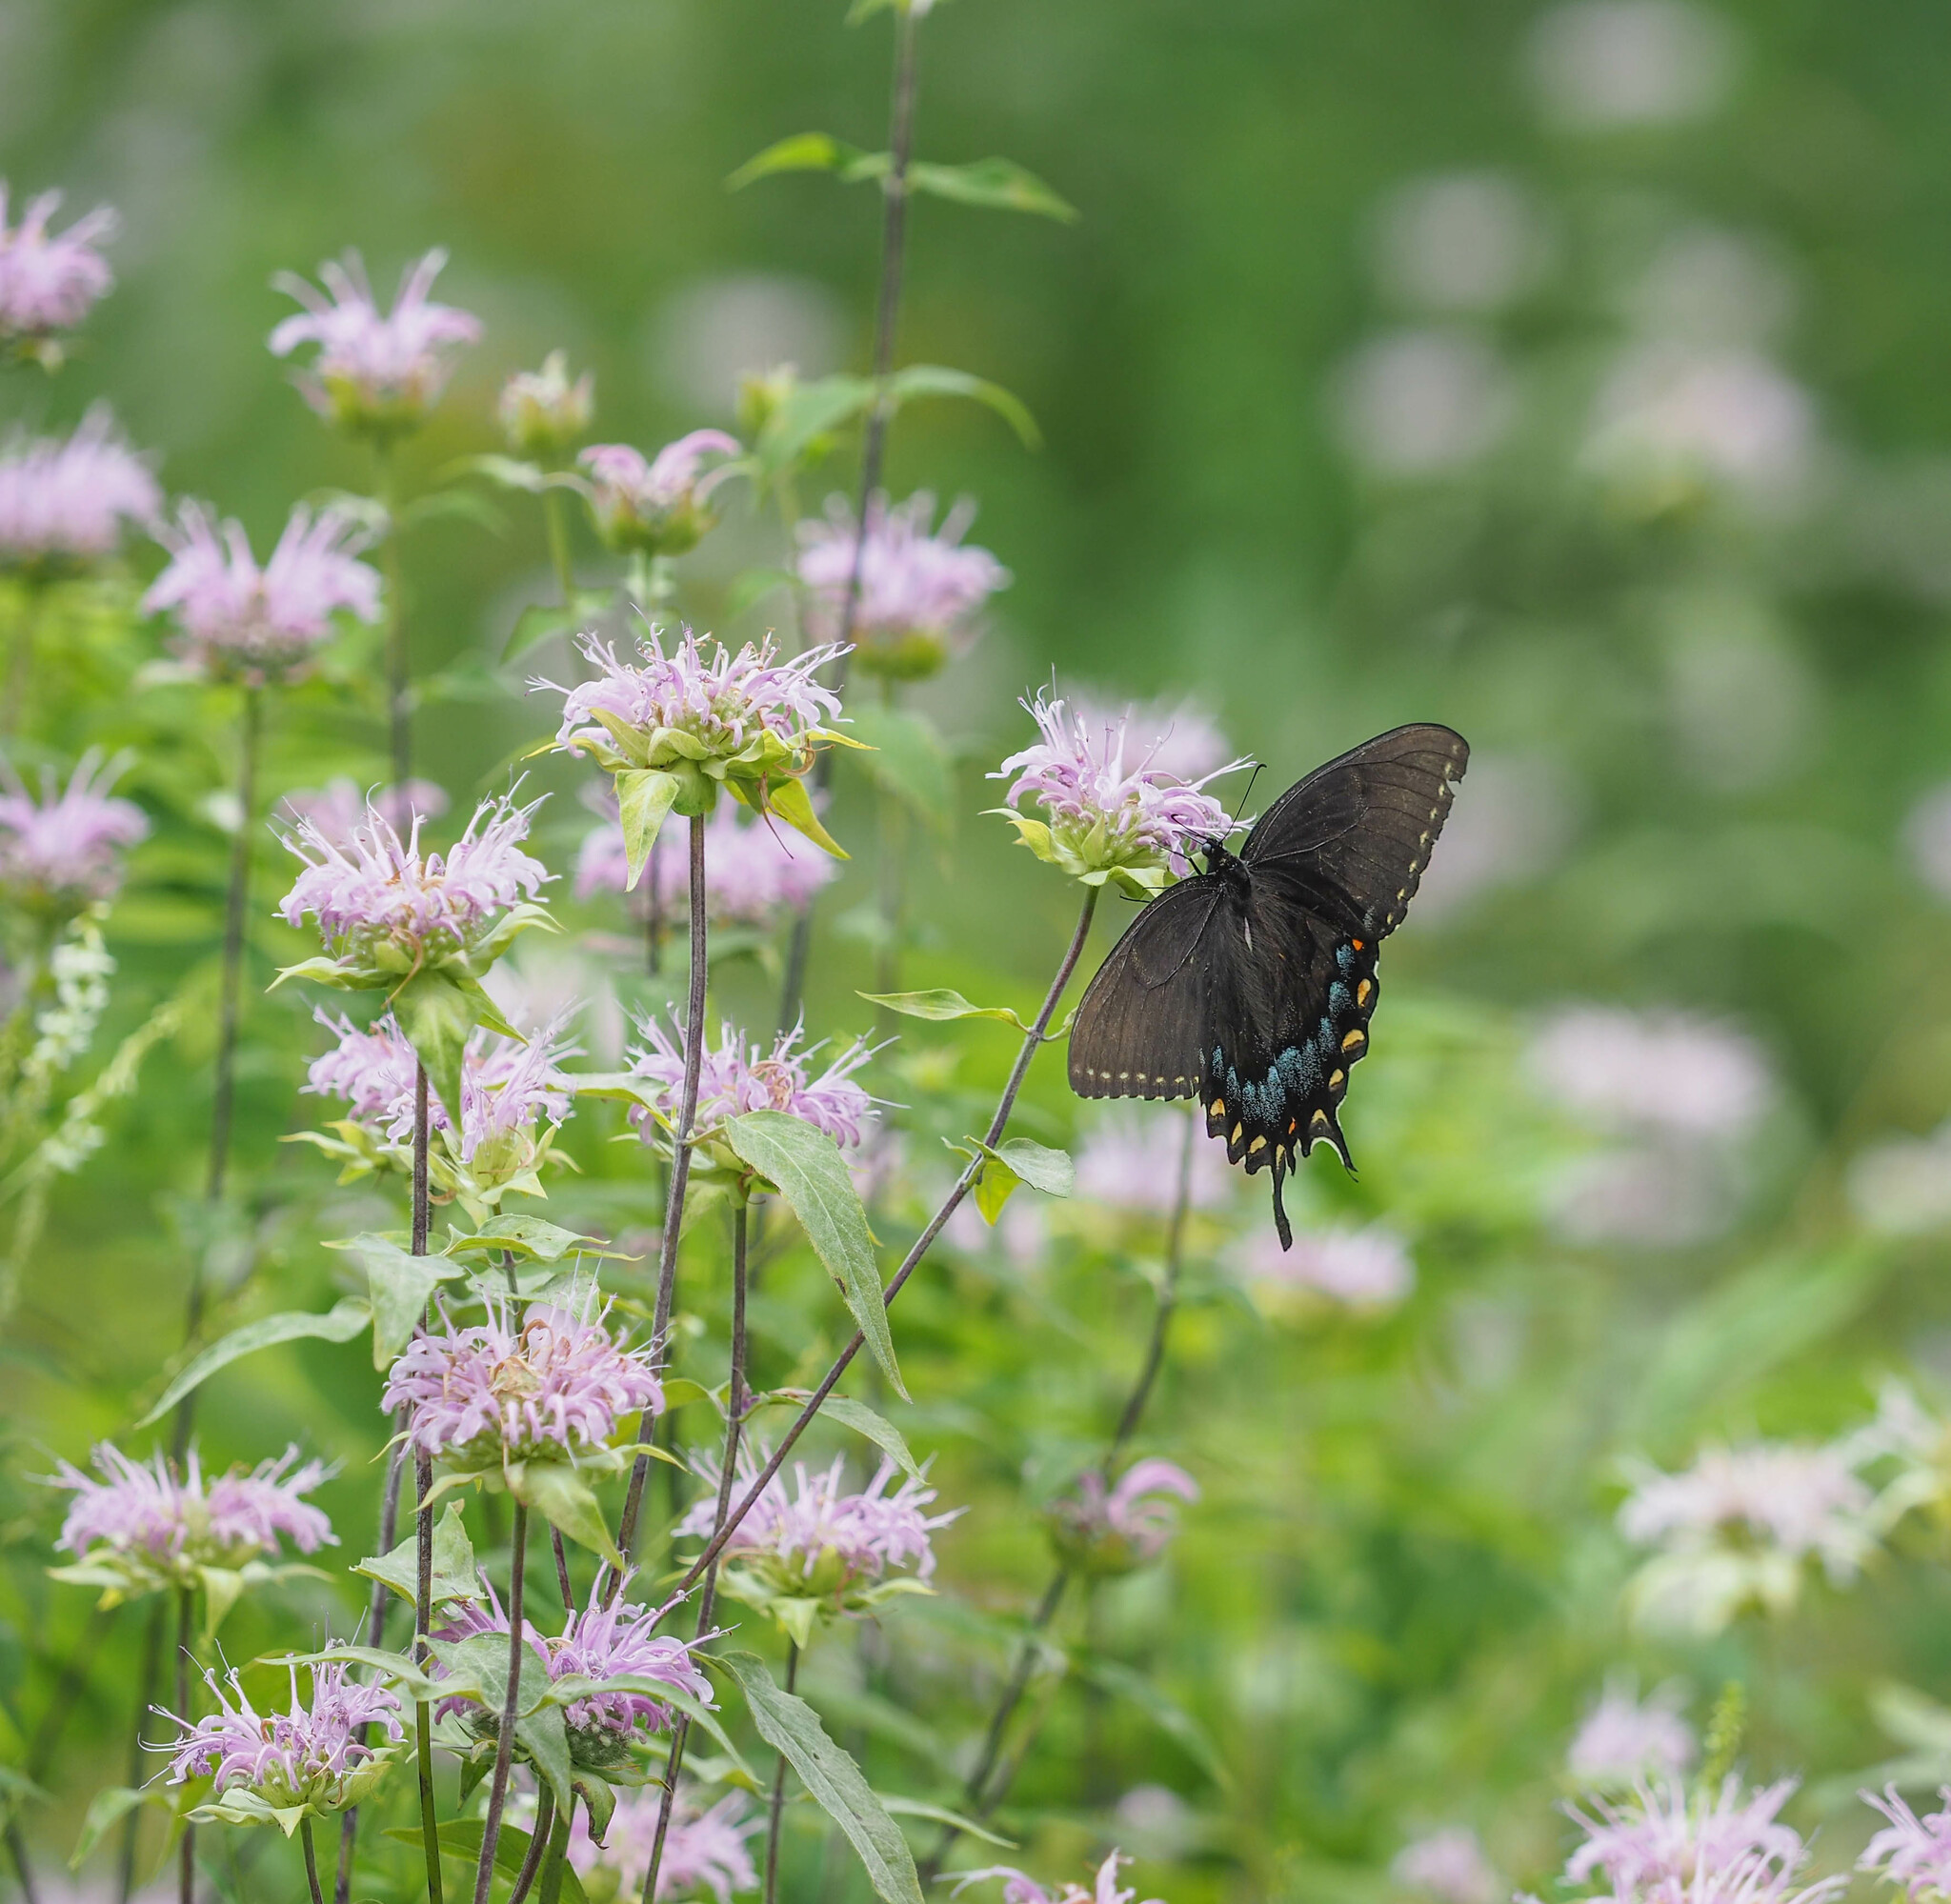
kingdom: Animalia
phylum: Arthropoda
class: Insecta
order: Lepidoptera
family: Papilionidae
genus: Papilio
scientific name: Papilio glaucus
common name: Tiger swallowtail
